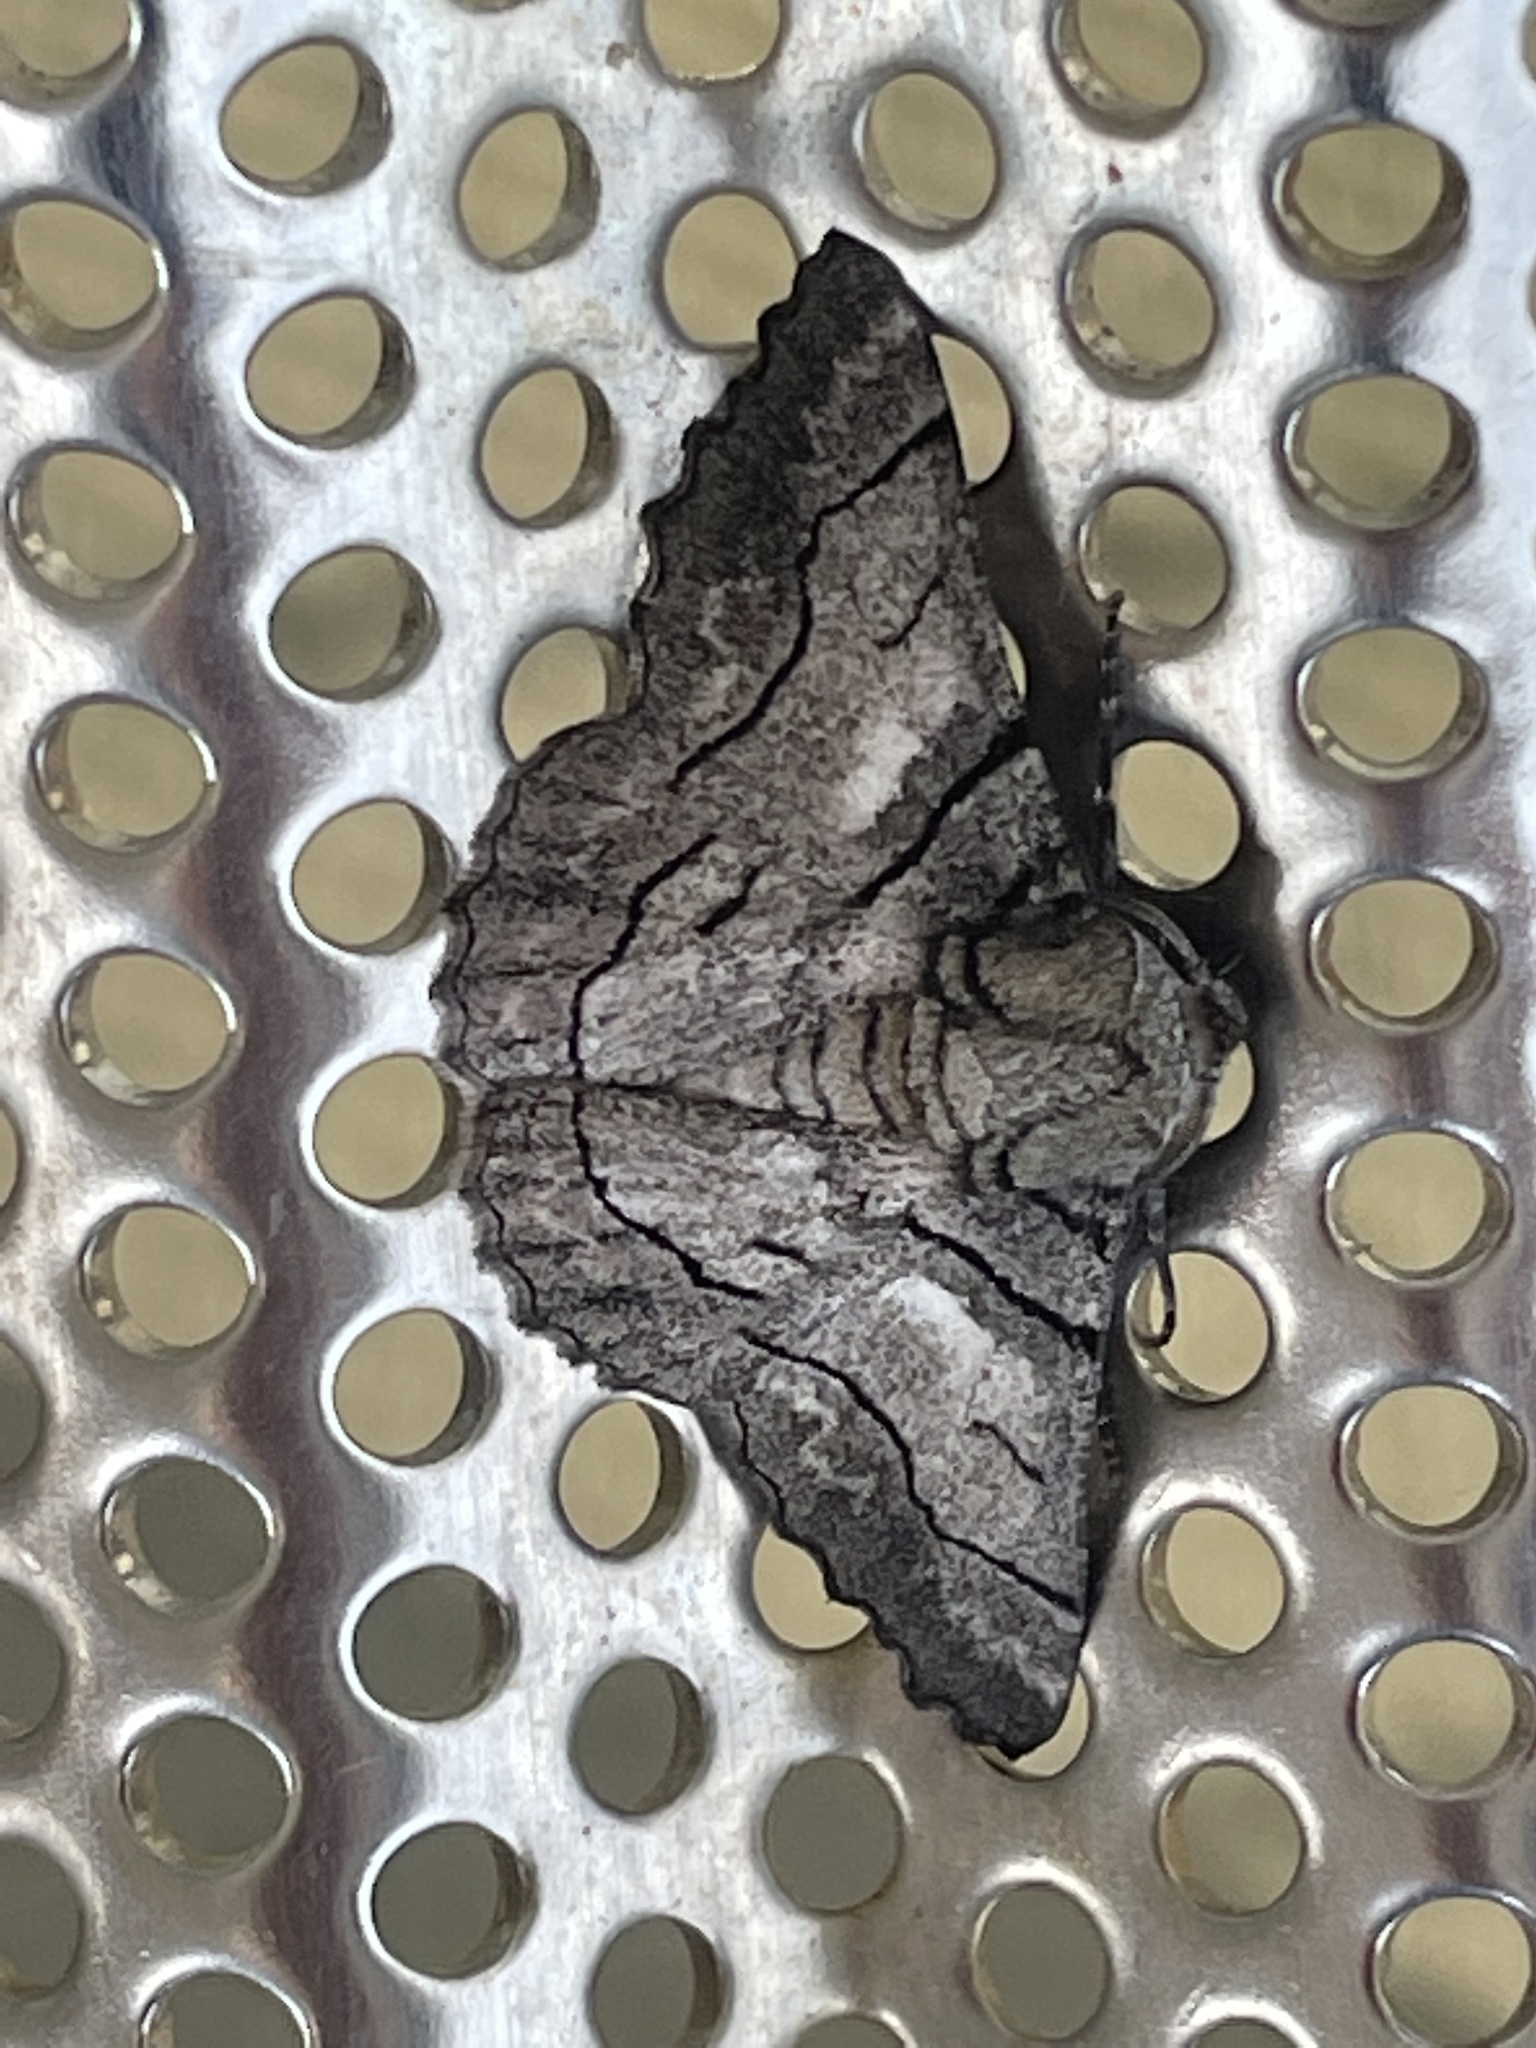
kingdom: Animalia
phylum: Arthropoda
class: Insecta
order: Lepidoptera
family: Geometridae
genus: Hypobapta
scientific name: Hypobapta diffundens
